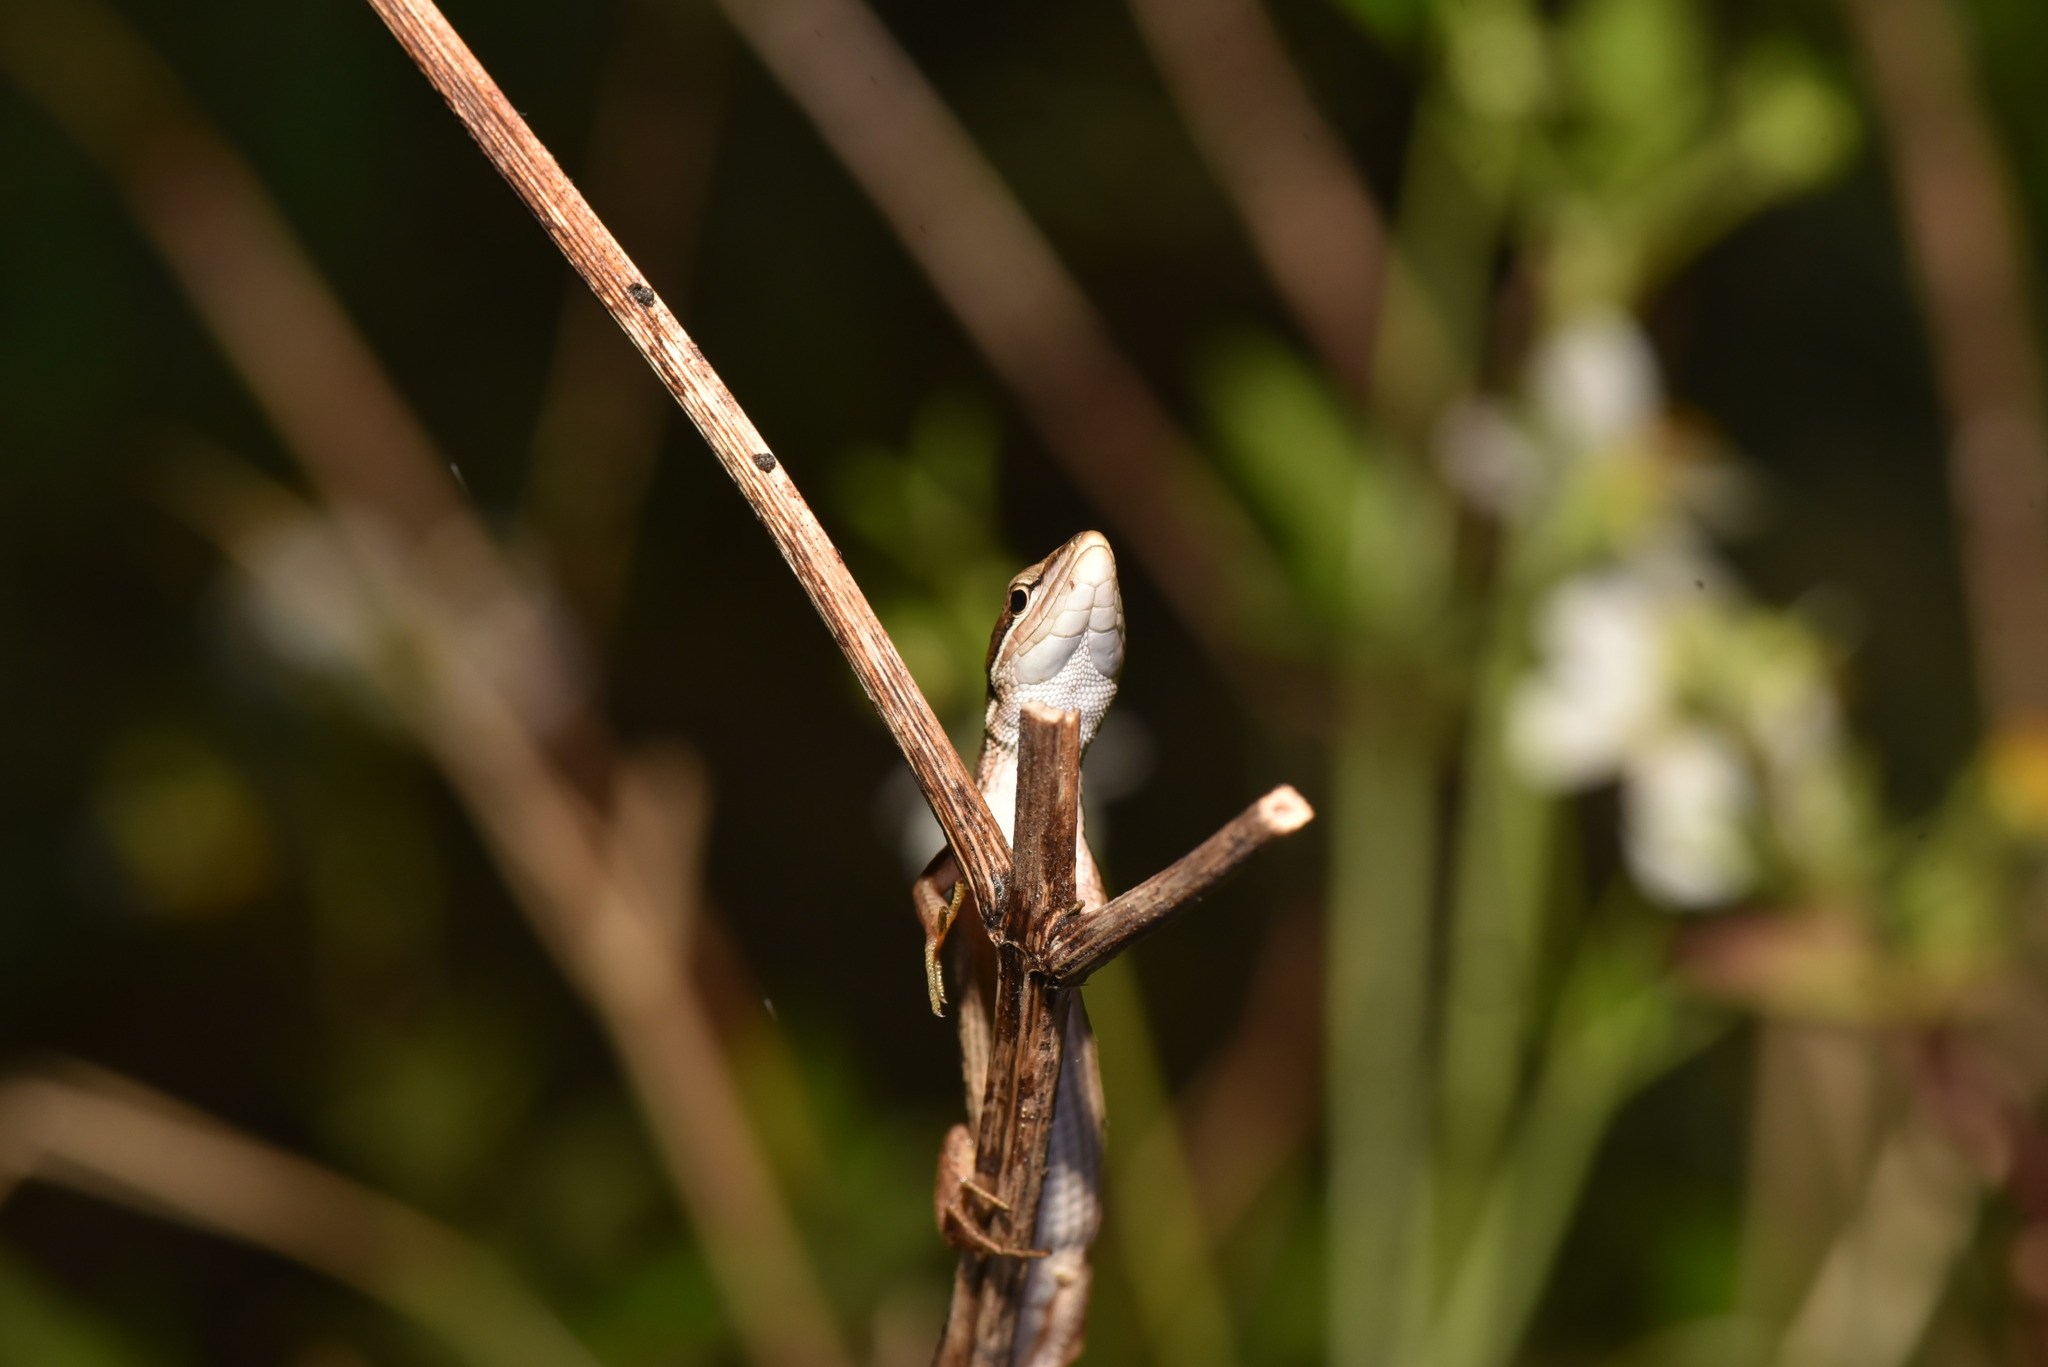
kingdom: Animalia
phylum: Chordata
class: Squamata
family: Lacertidae
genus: Takydromus
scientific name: Takydromus luyeanus
